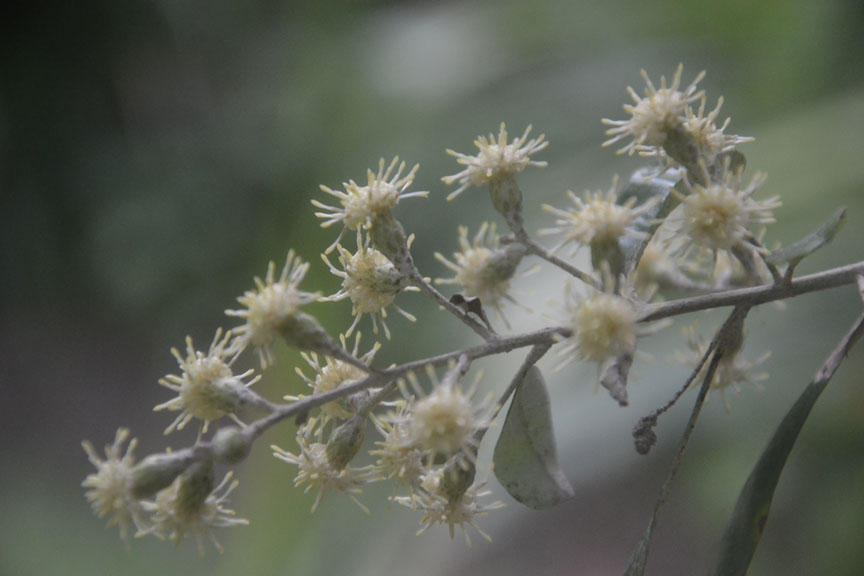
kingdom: Plantae
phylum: Tracheophyta
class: Magnoliopsida
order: Asterales
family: Asteraceae
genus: Brachylaena
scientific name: Brachylaena discolor
